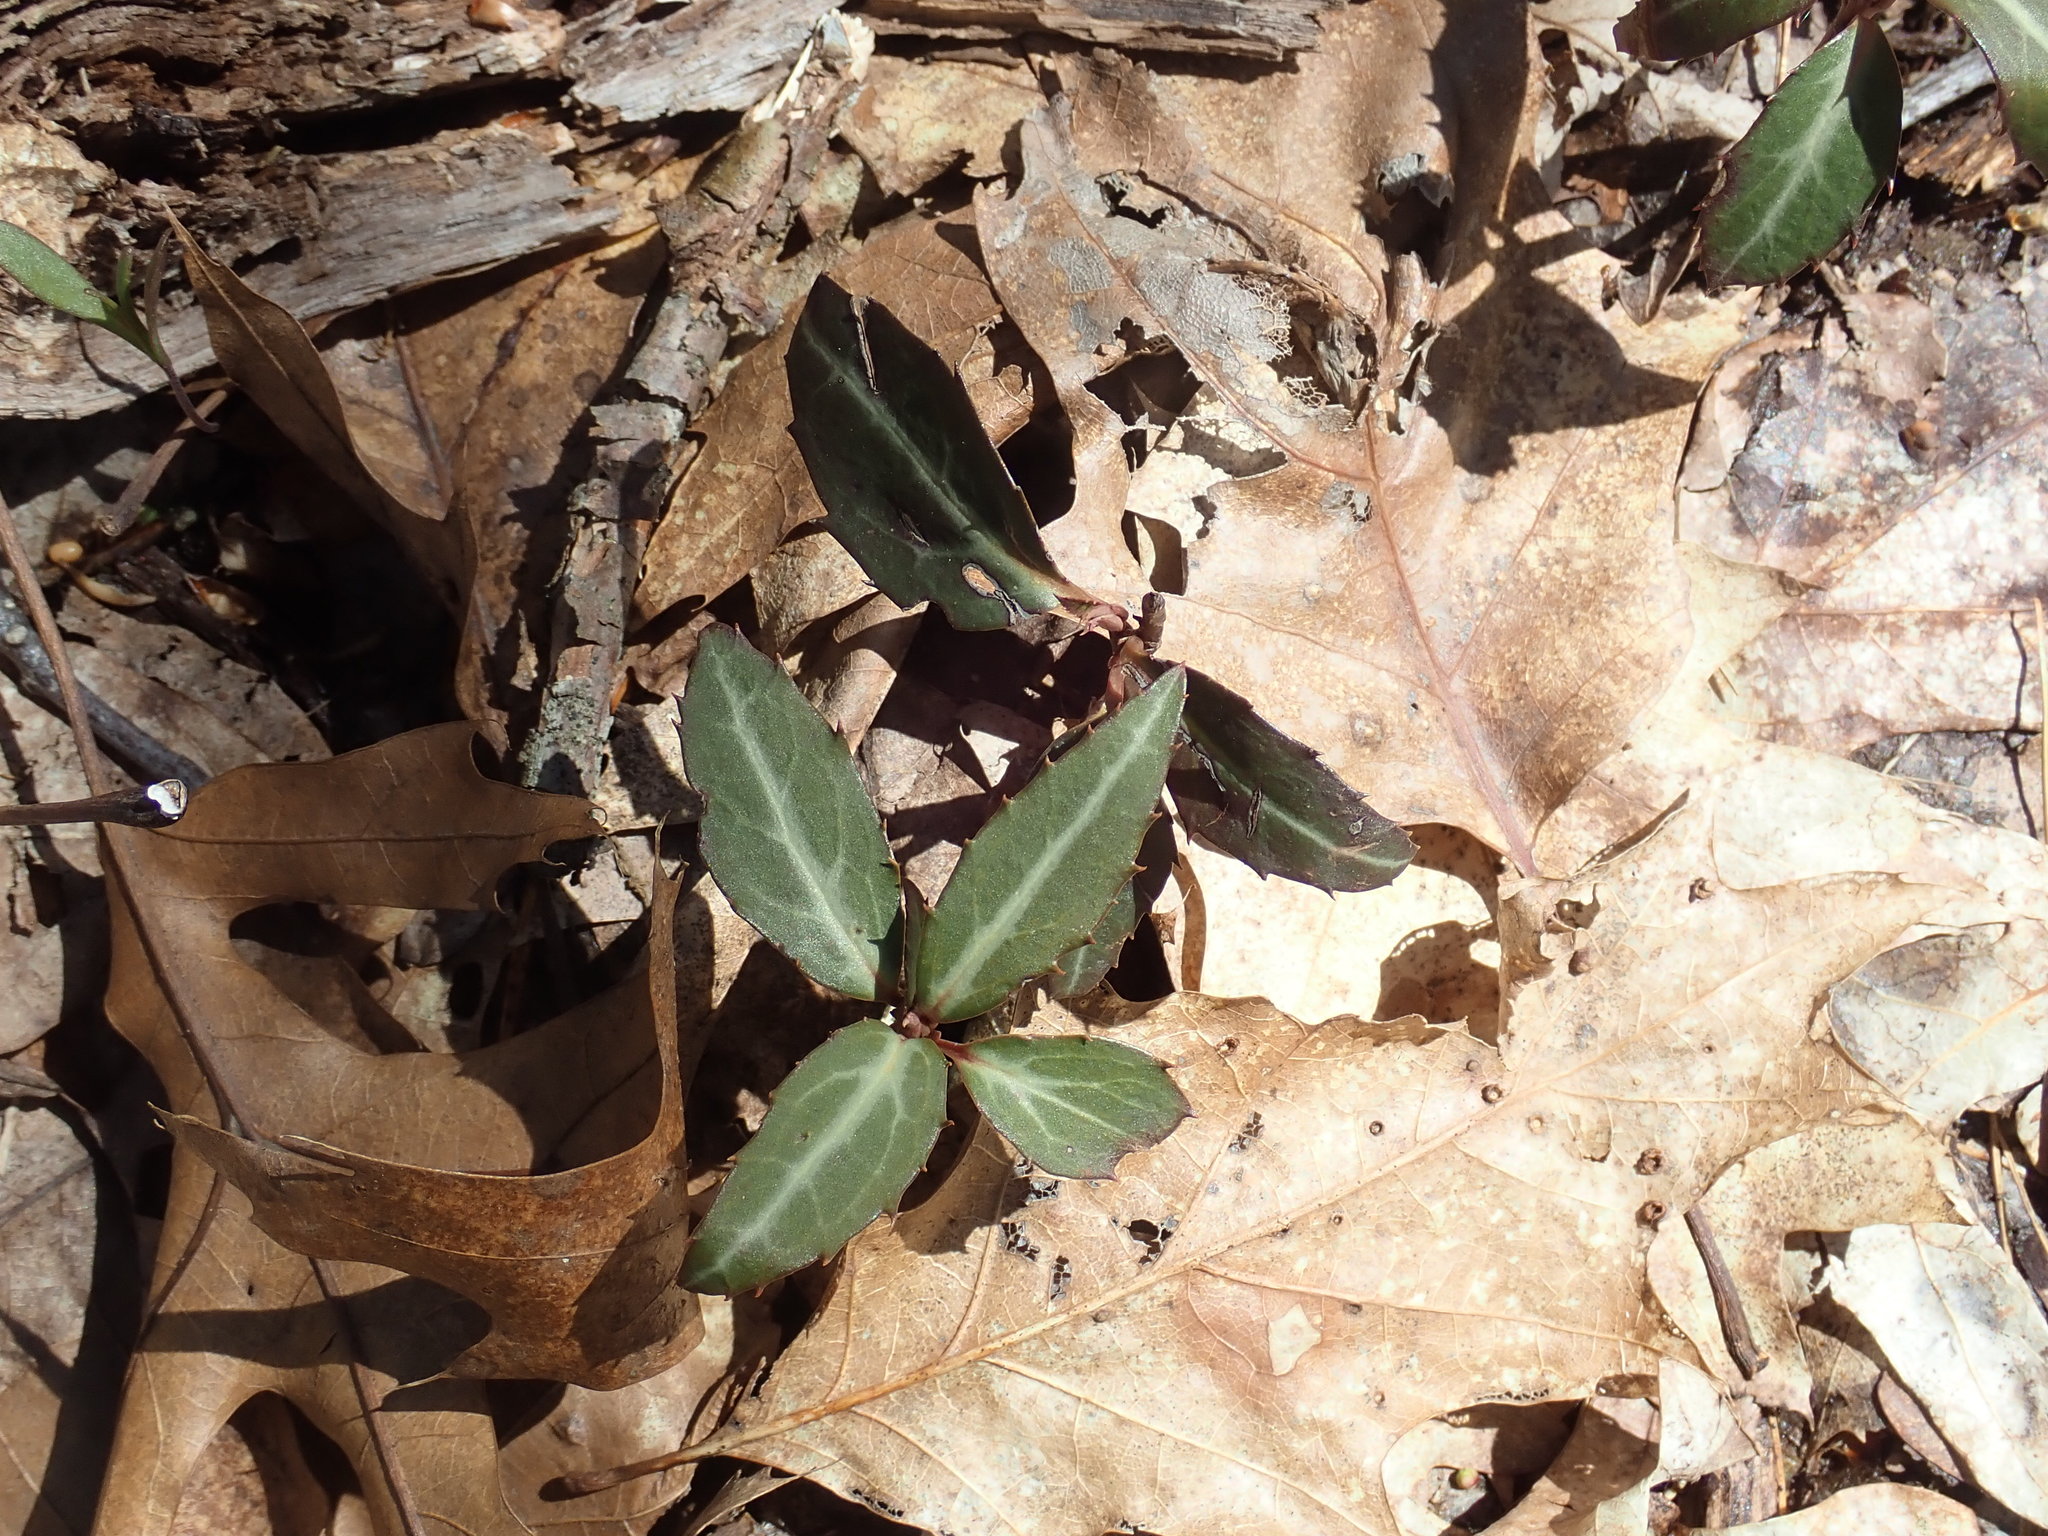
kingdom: Plantae
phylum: Tracheophyta
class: Magnoliopsida
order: Ericales
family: Ericaceae
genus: Chimaphila
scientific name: Chimaphila maculata
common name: Spotted pipsissewa
